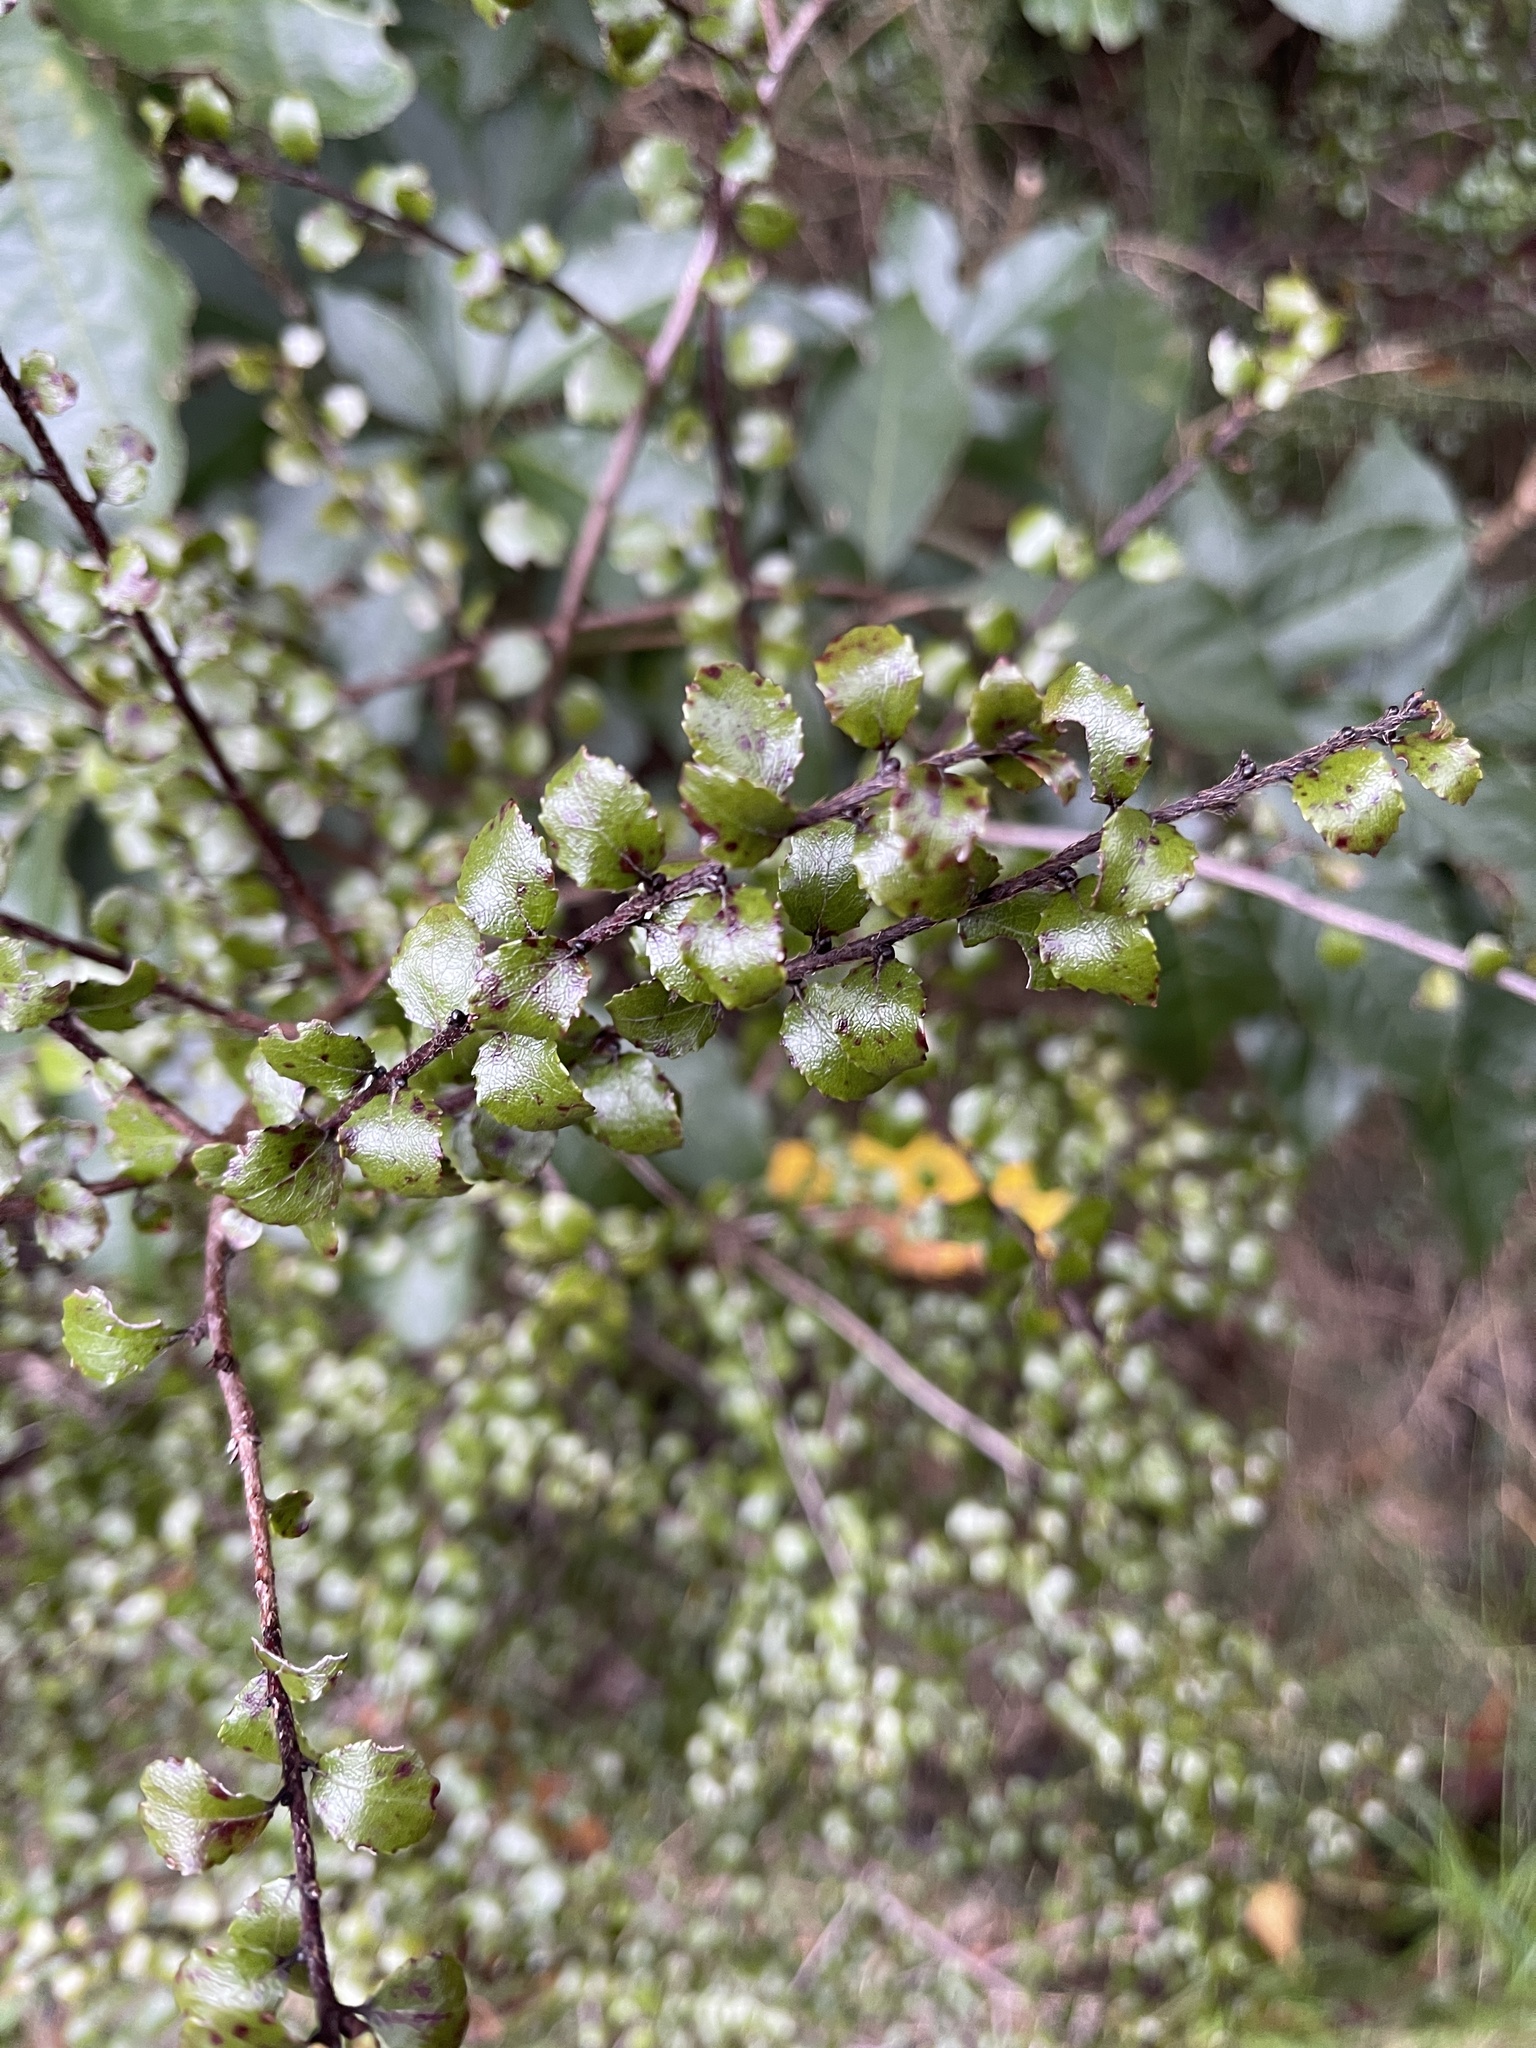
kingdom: Plantae
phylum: Tracheophyta
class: Magnoliopsida
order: Ericales
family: Ericaceae
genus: Gaultheria
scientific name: Gaultheria antipoda
